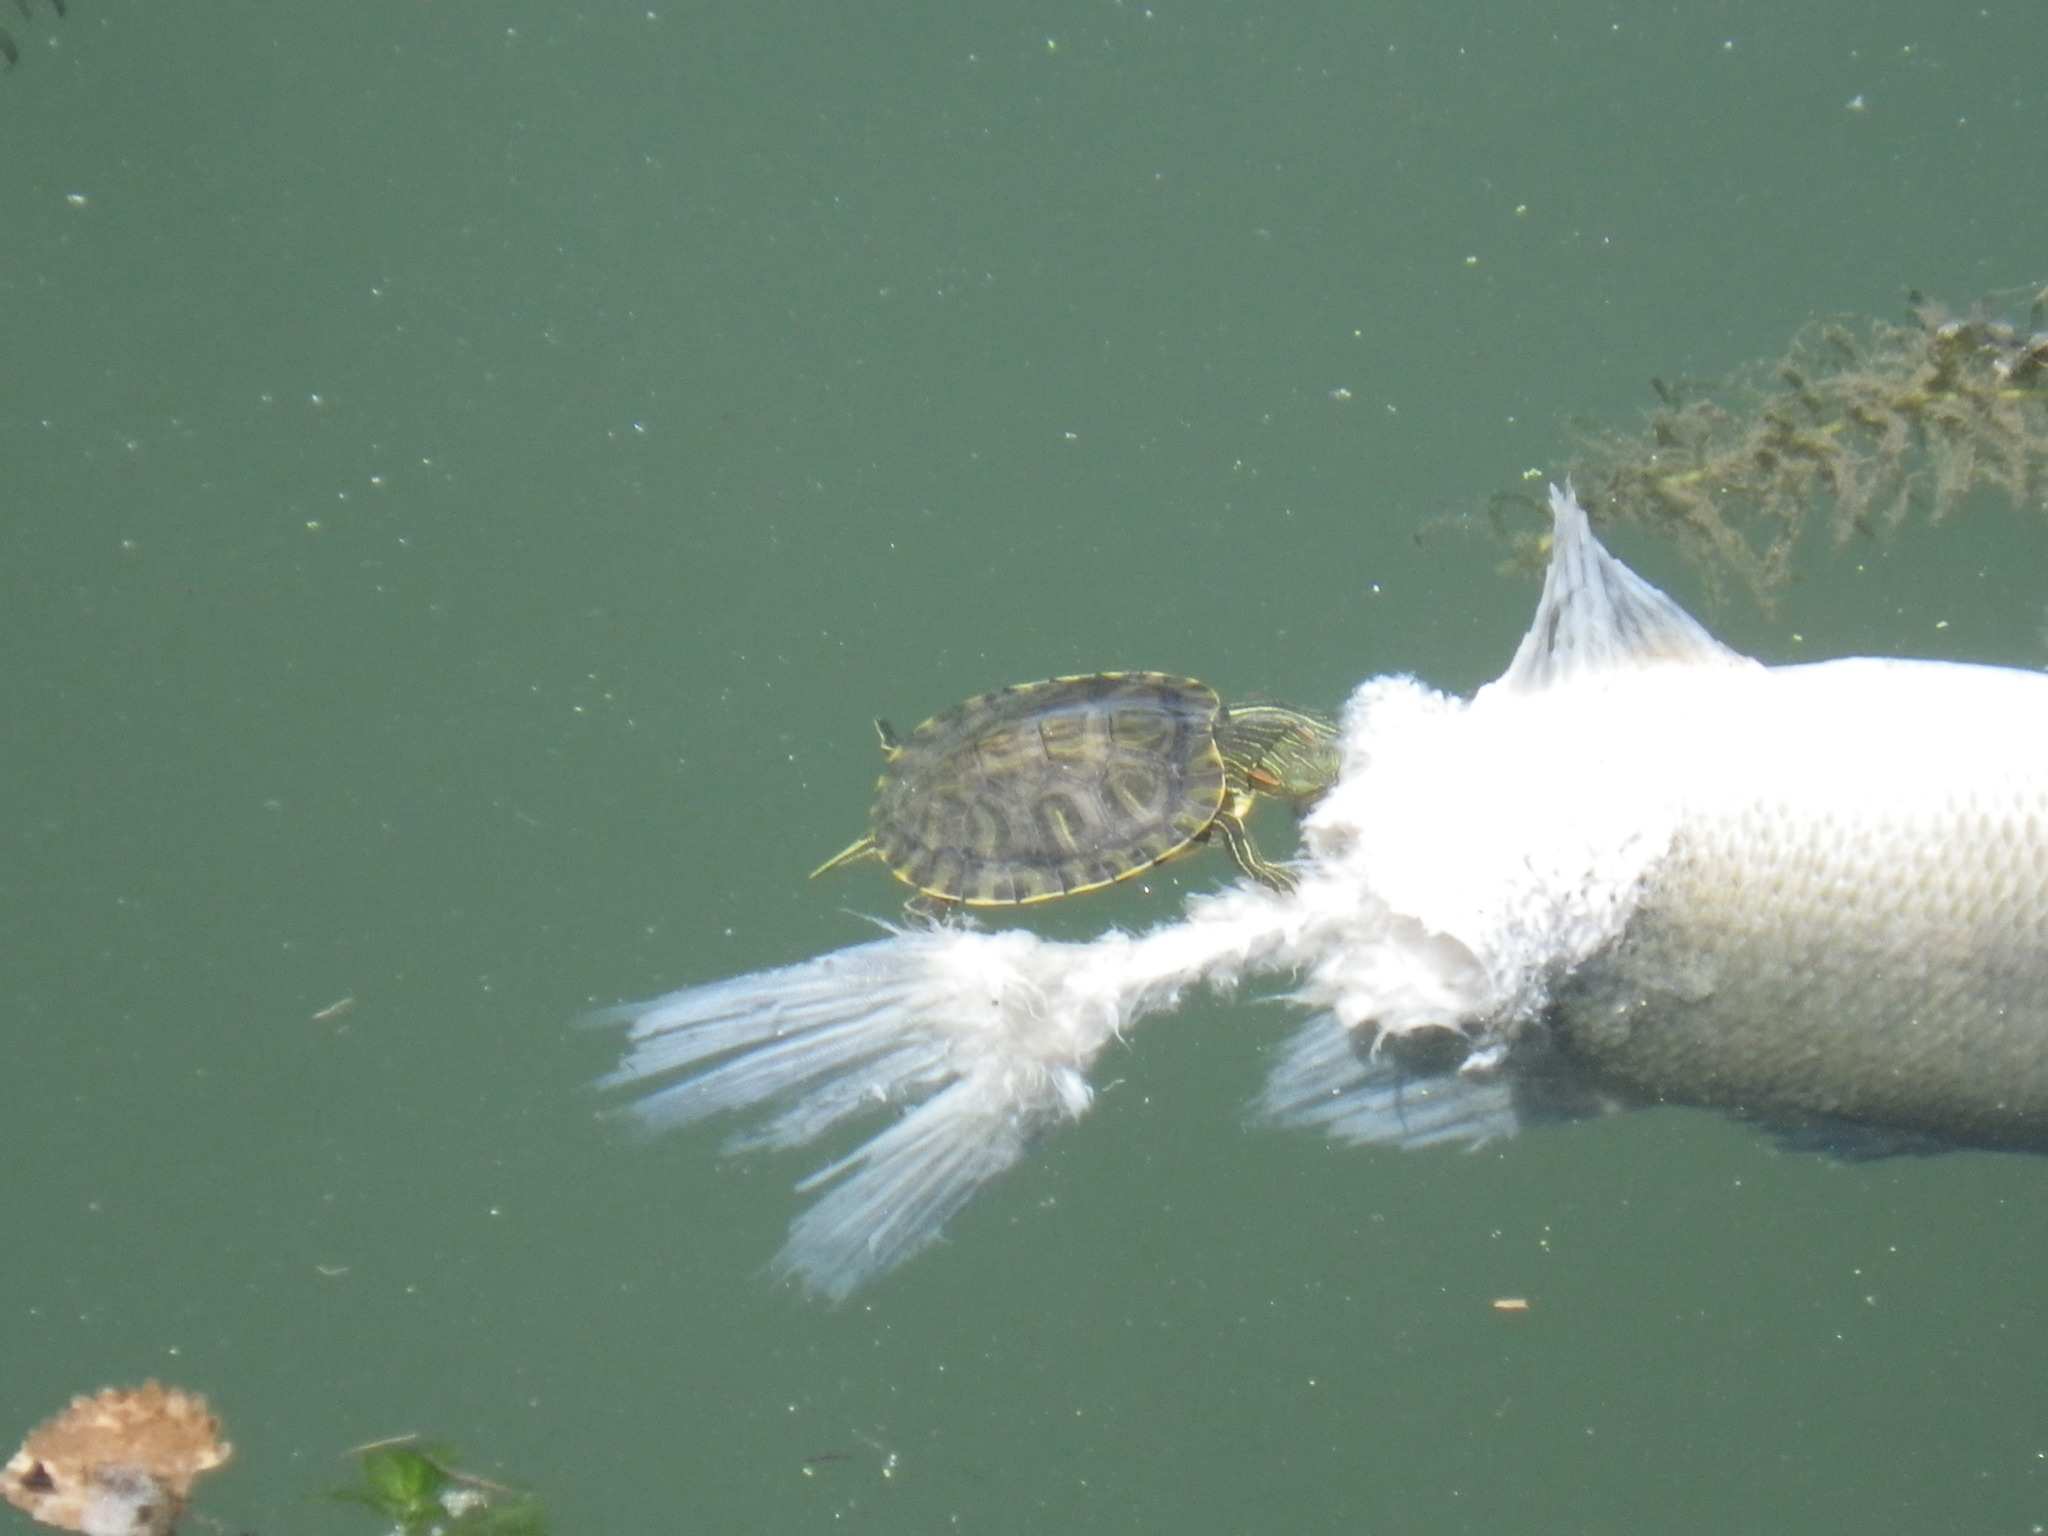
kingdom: Animalia
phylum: Chordata
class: Testudines
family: Emydidae
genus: Trachemys
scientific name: Trachemys scripta
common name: Slider
